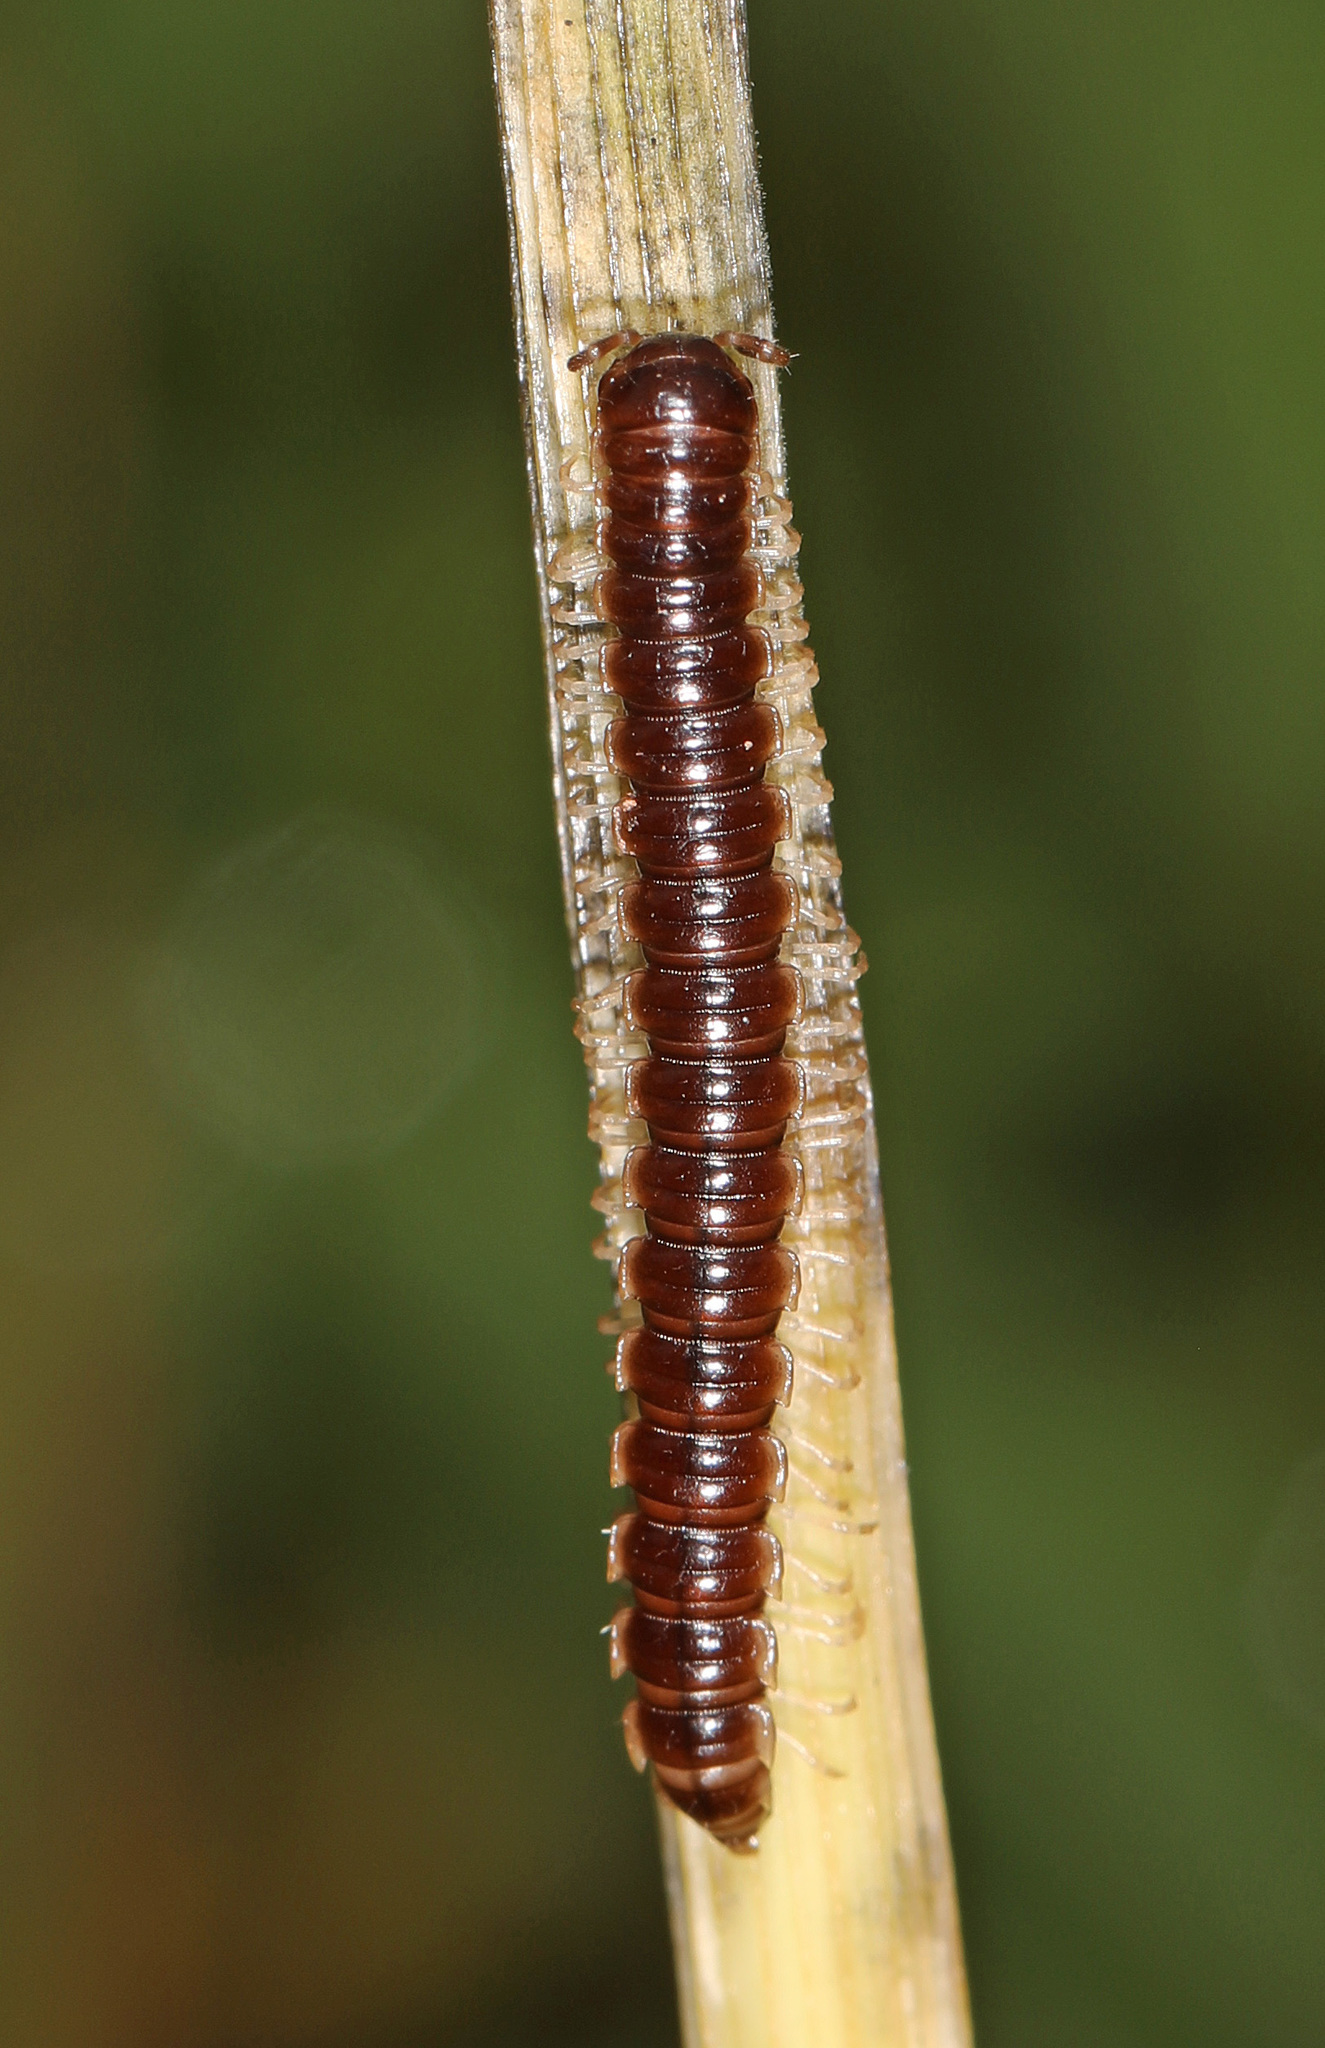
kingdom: Animalia
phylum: Arthropoda
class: Diplopoda
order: Polydesmida
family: Paradoxosomatidae
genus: Oxidus
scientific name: Oxidus gracilis
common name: Greenhouse millipede
